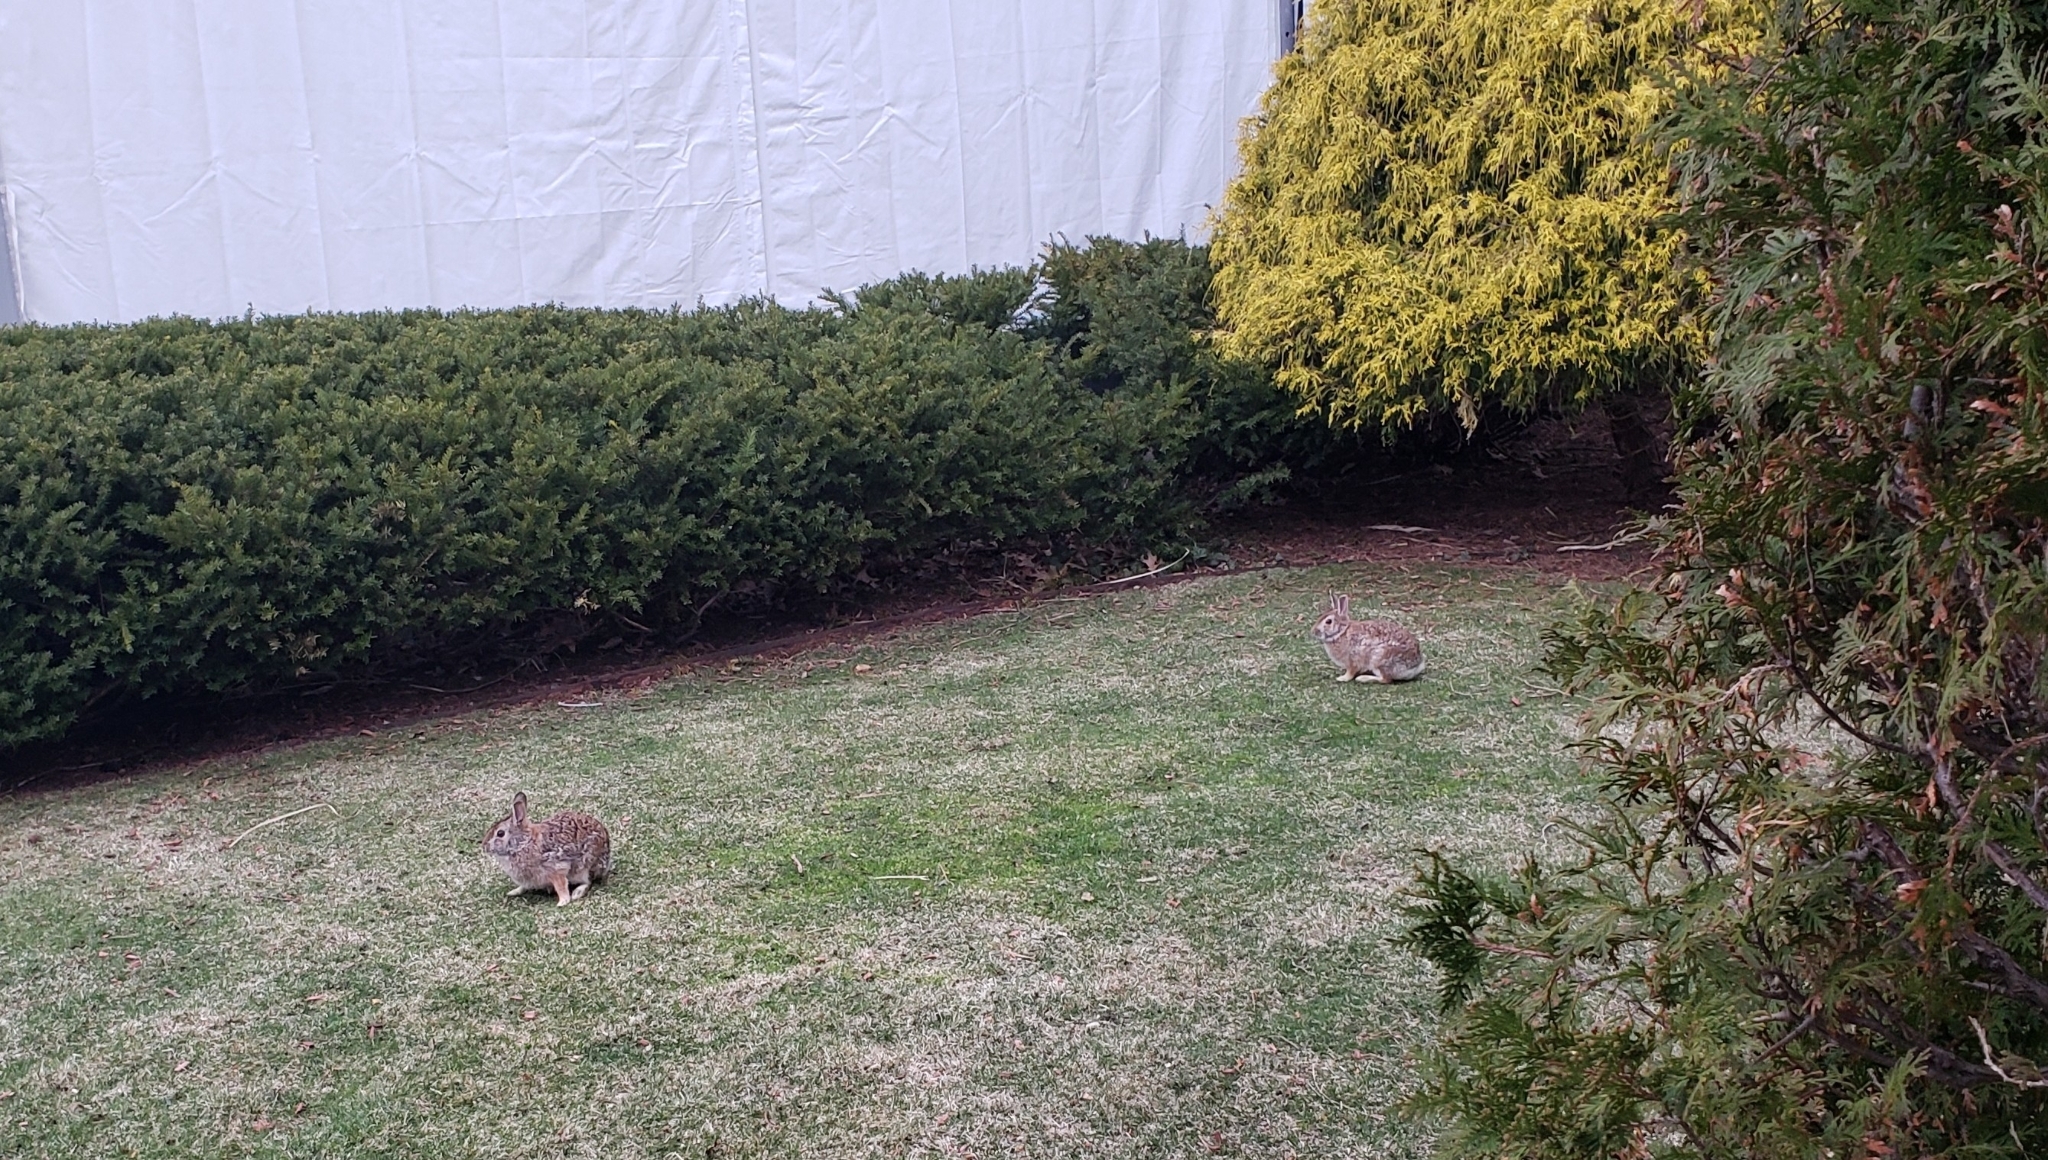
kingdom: Animalia
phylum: Chordata
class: Mammalia
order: Lagomorpha
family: Leporidae
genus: Sylvilagus
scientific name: Sylvilagus floridanus
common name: Eastern cottontail
